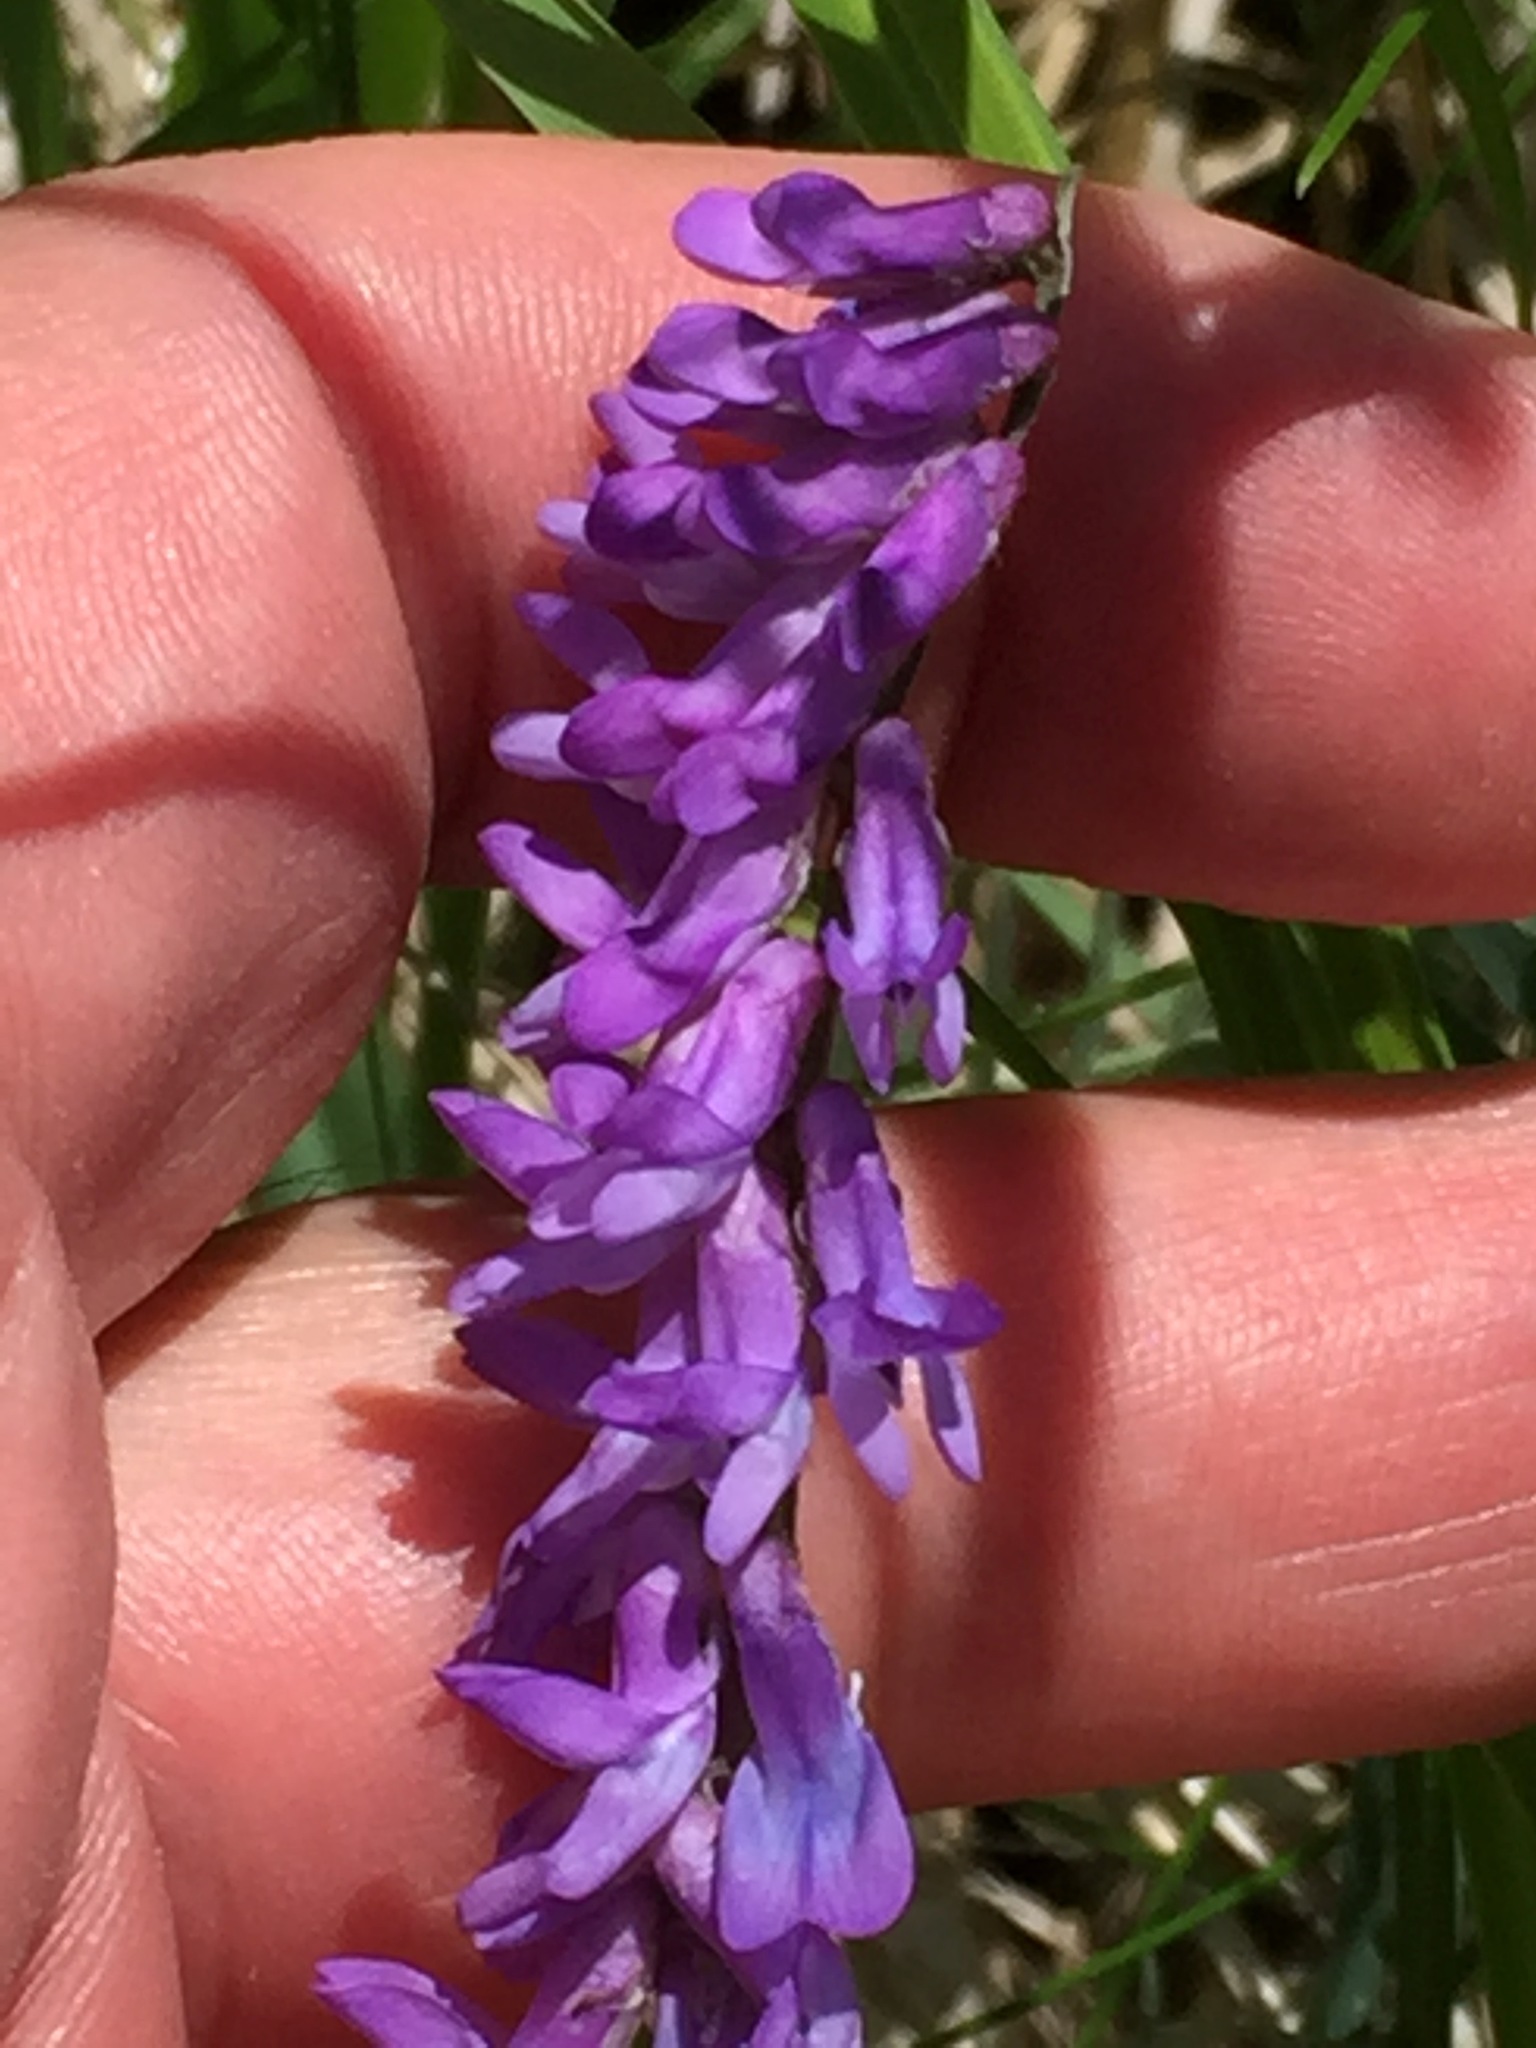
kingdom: Plantae
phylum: Tracheophyta
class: Magnoliopsida
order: Fabales
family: Fabaceae
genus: Vicia
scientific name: Vicia cracca
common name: Bird vetch
